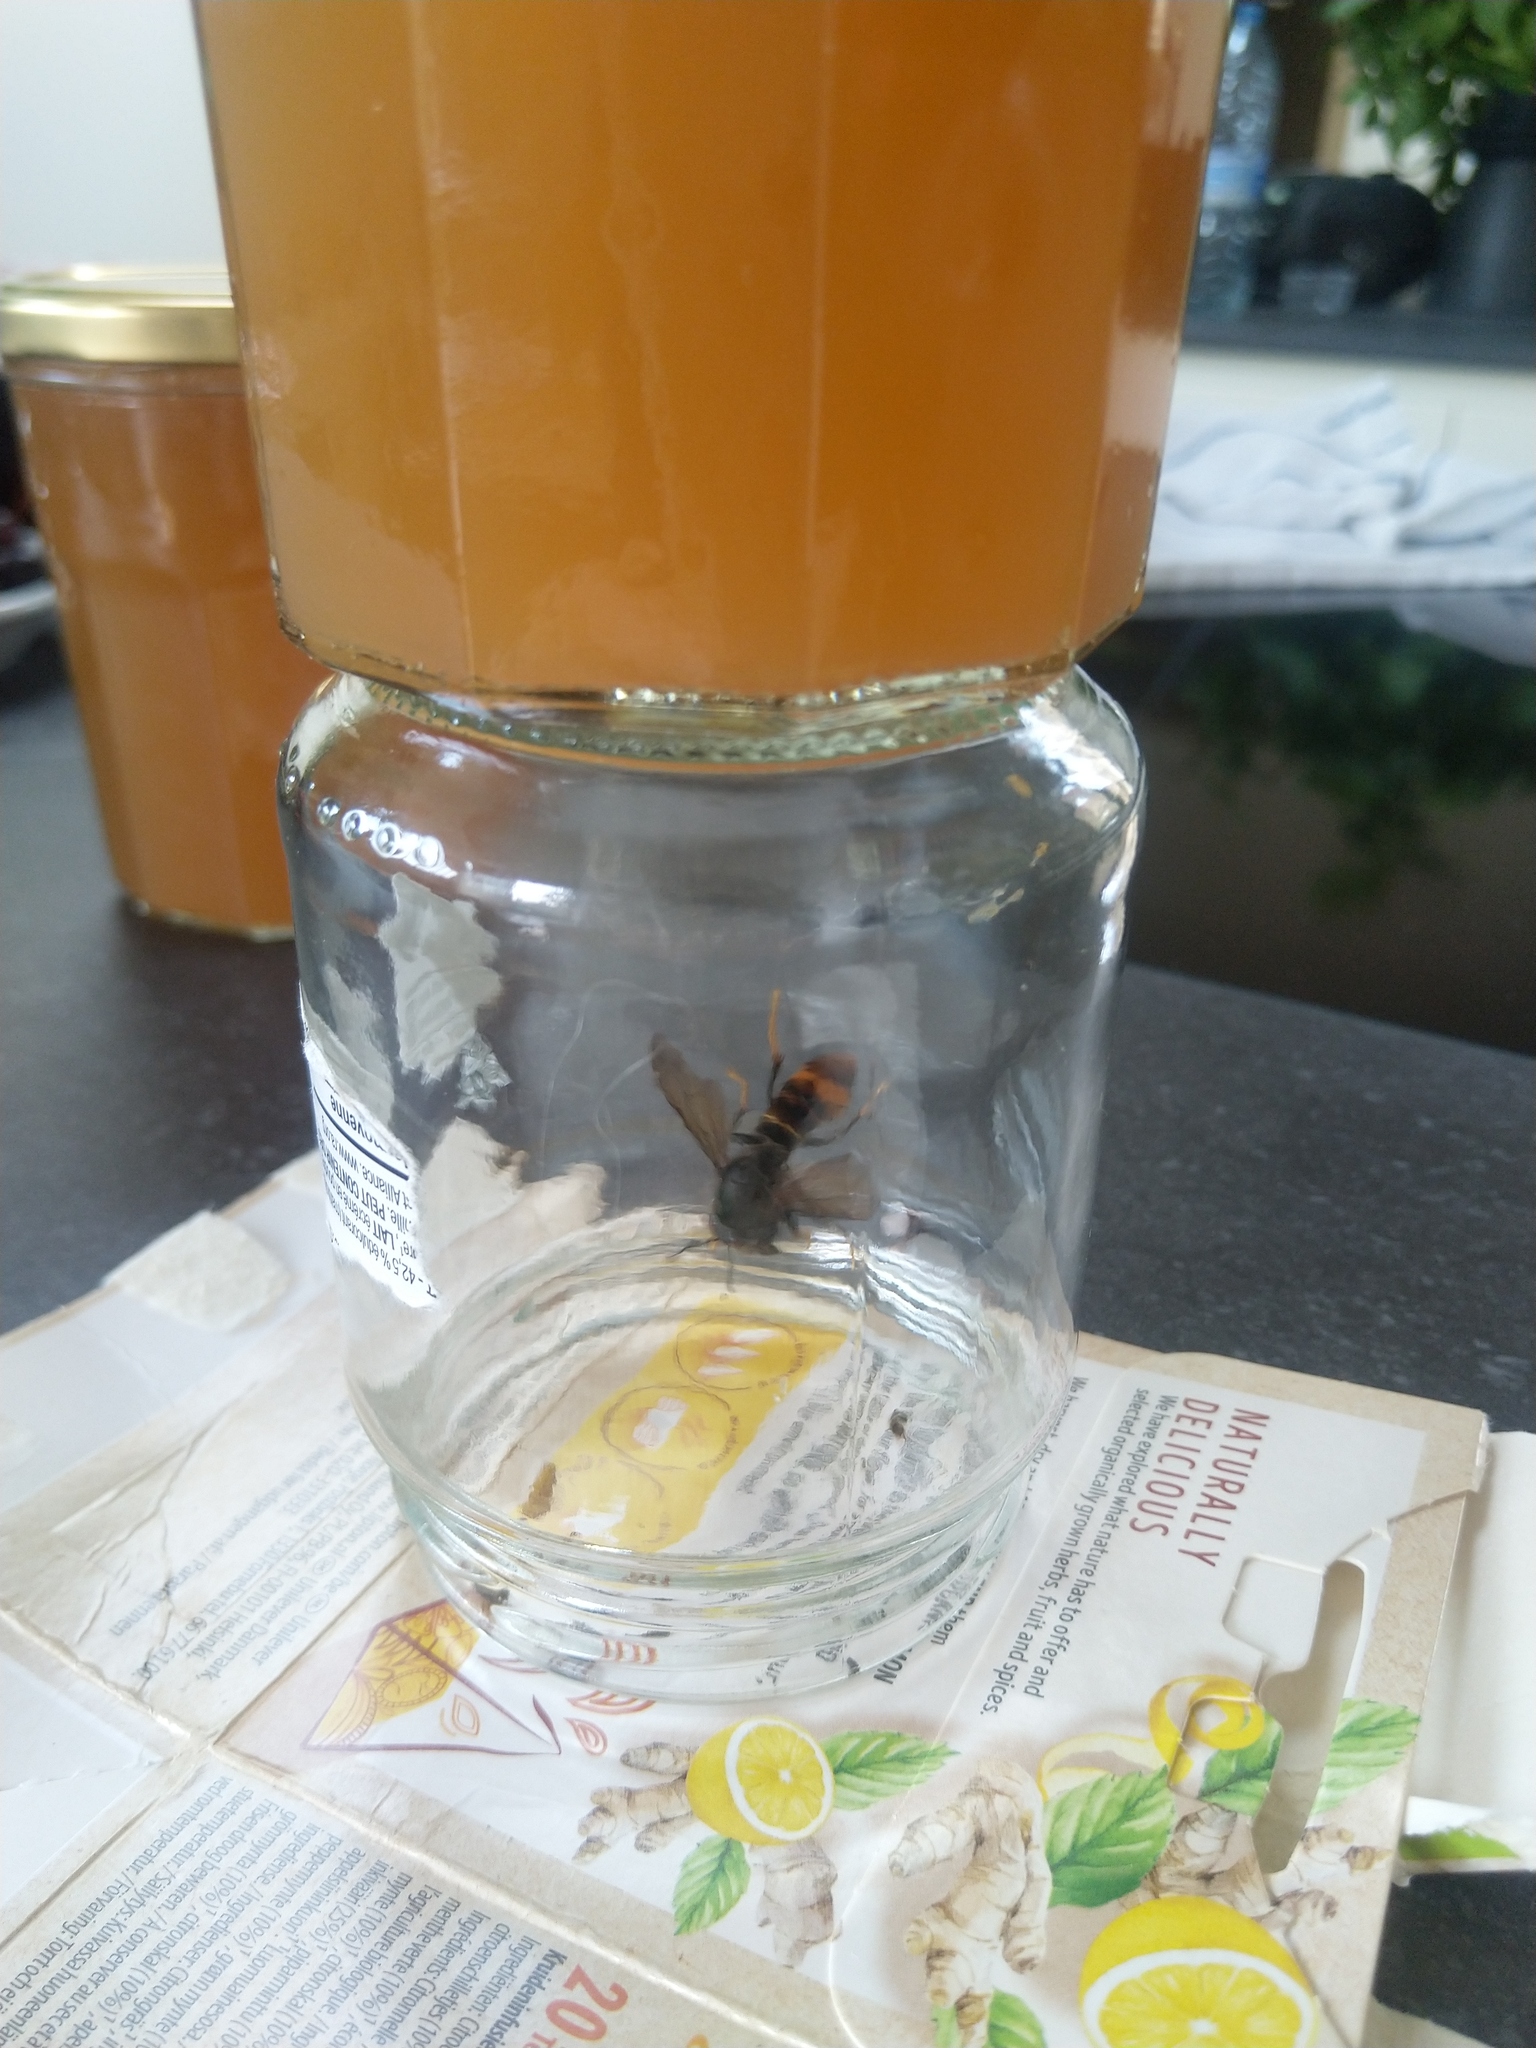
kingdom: Animalia
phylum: Arthropoda
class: Insecta
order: Hymenoptera
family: Vespidae
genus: Vespa
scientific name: Vespa velutina
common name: Asian hornet
